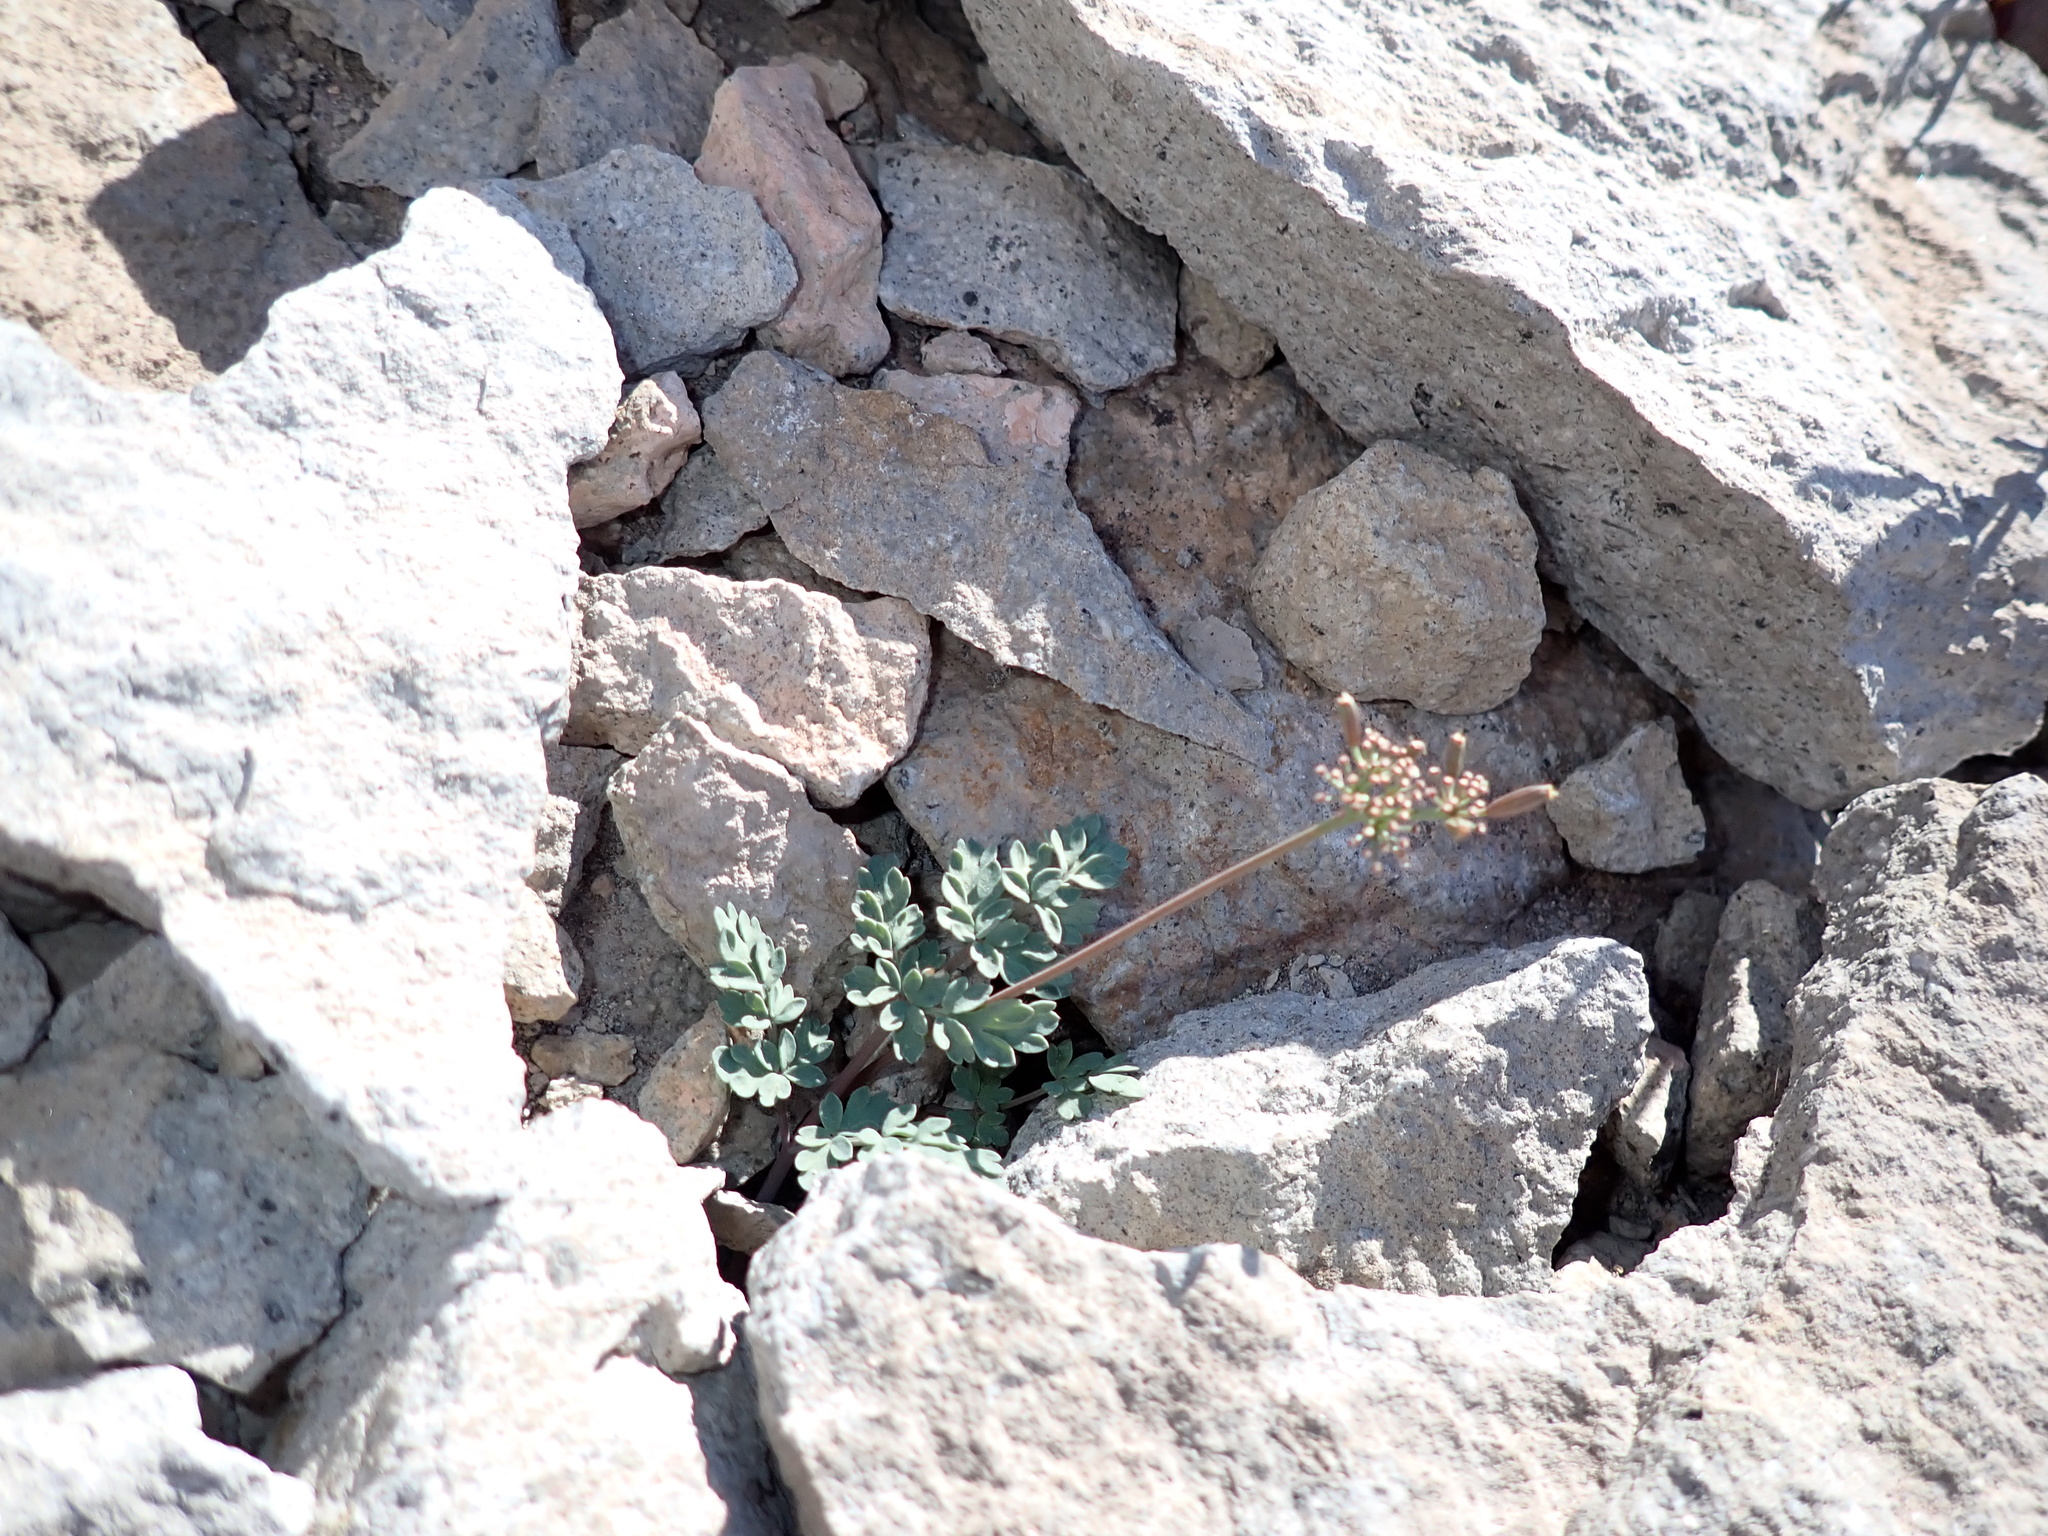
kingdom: Plantae
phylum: Tracheophyta
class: Magnoliopsida
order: Apiales
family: Apiaceae
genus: Lomatium
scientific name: Lomatium martindalei
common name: Cascade desert-parsley
